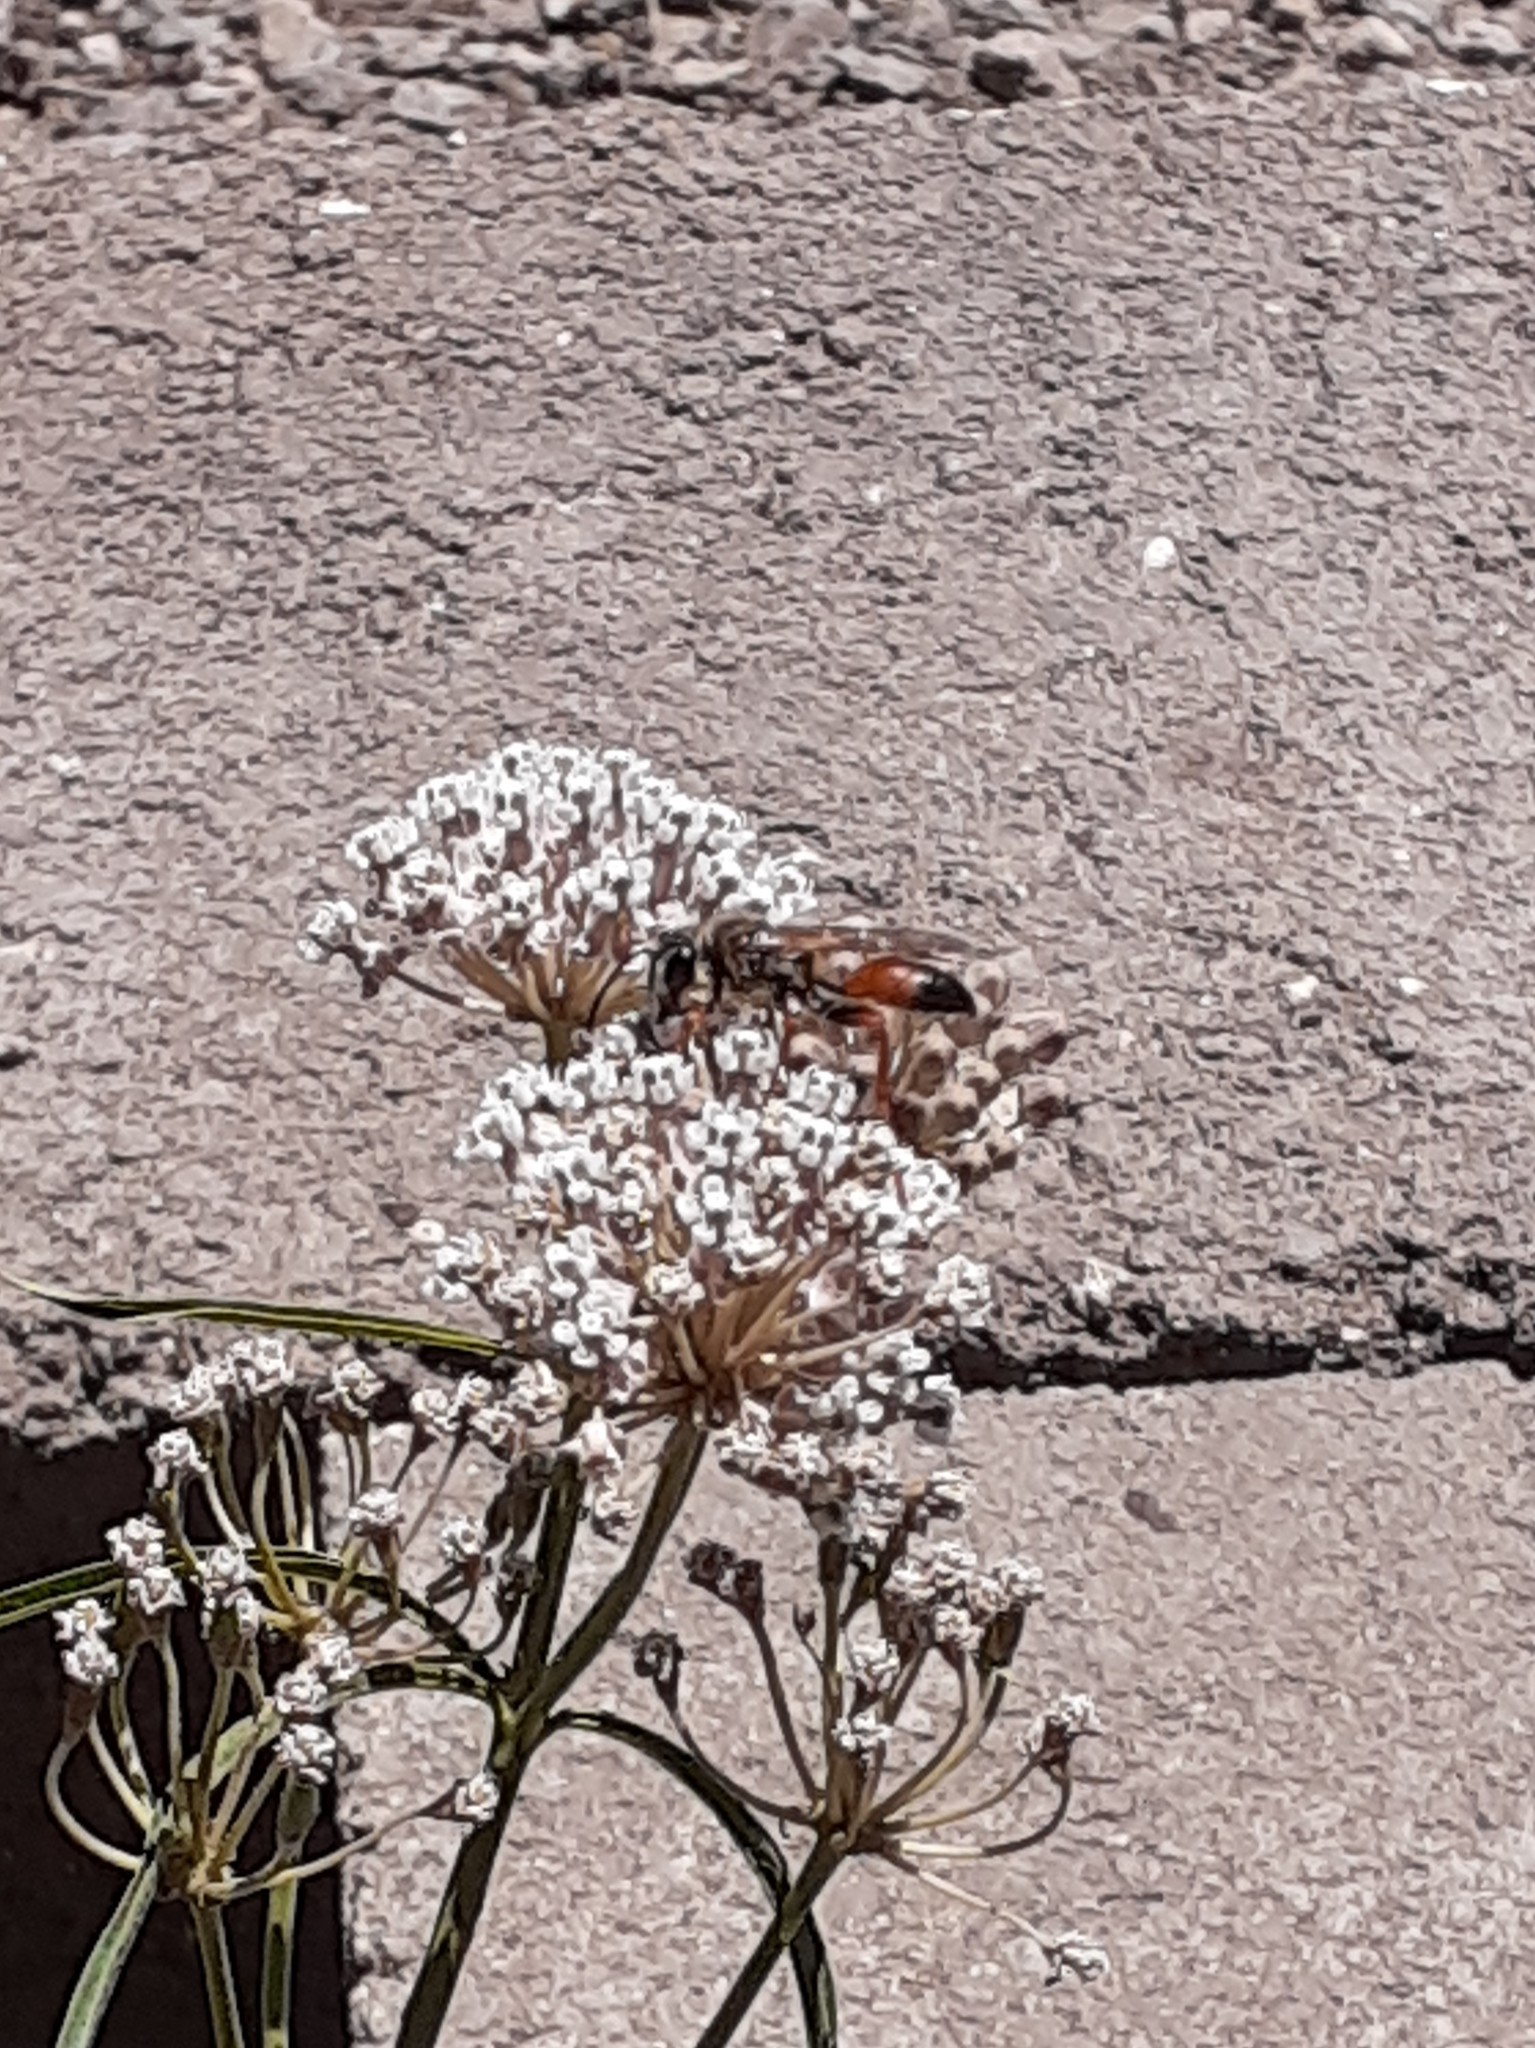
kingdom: Animalia
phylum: Arthropoda
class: Insecta
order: Hymenoptera
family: Sphecidae
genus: Sphex
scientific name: Sphex ichneumoneus
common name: Great golden digger wasp
